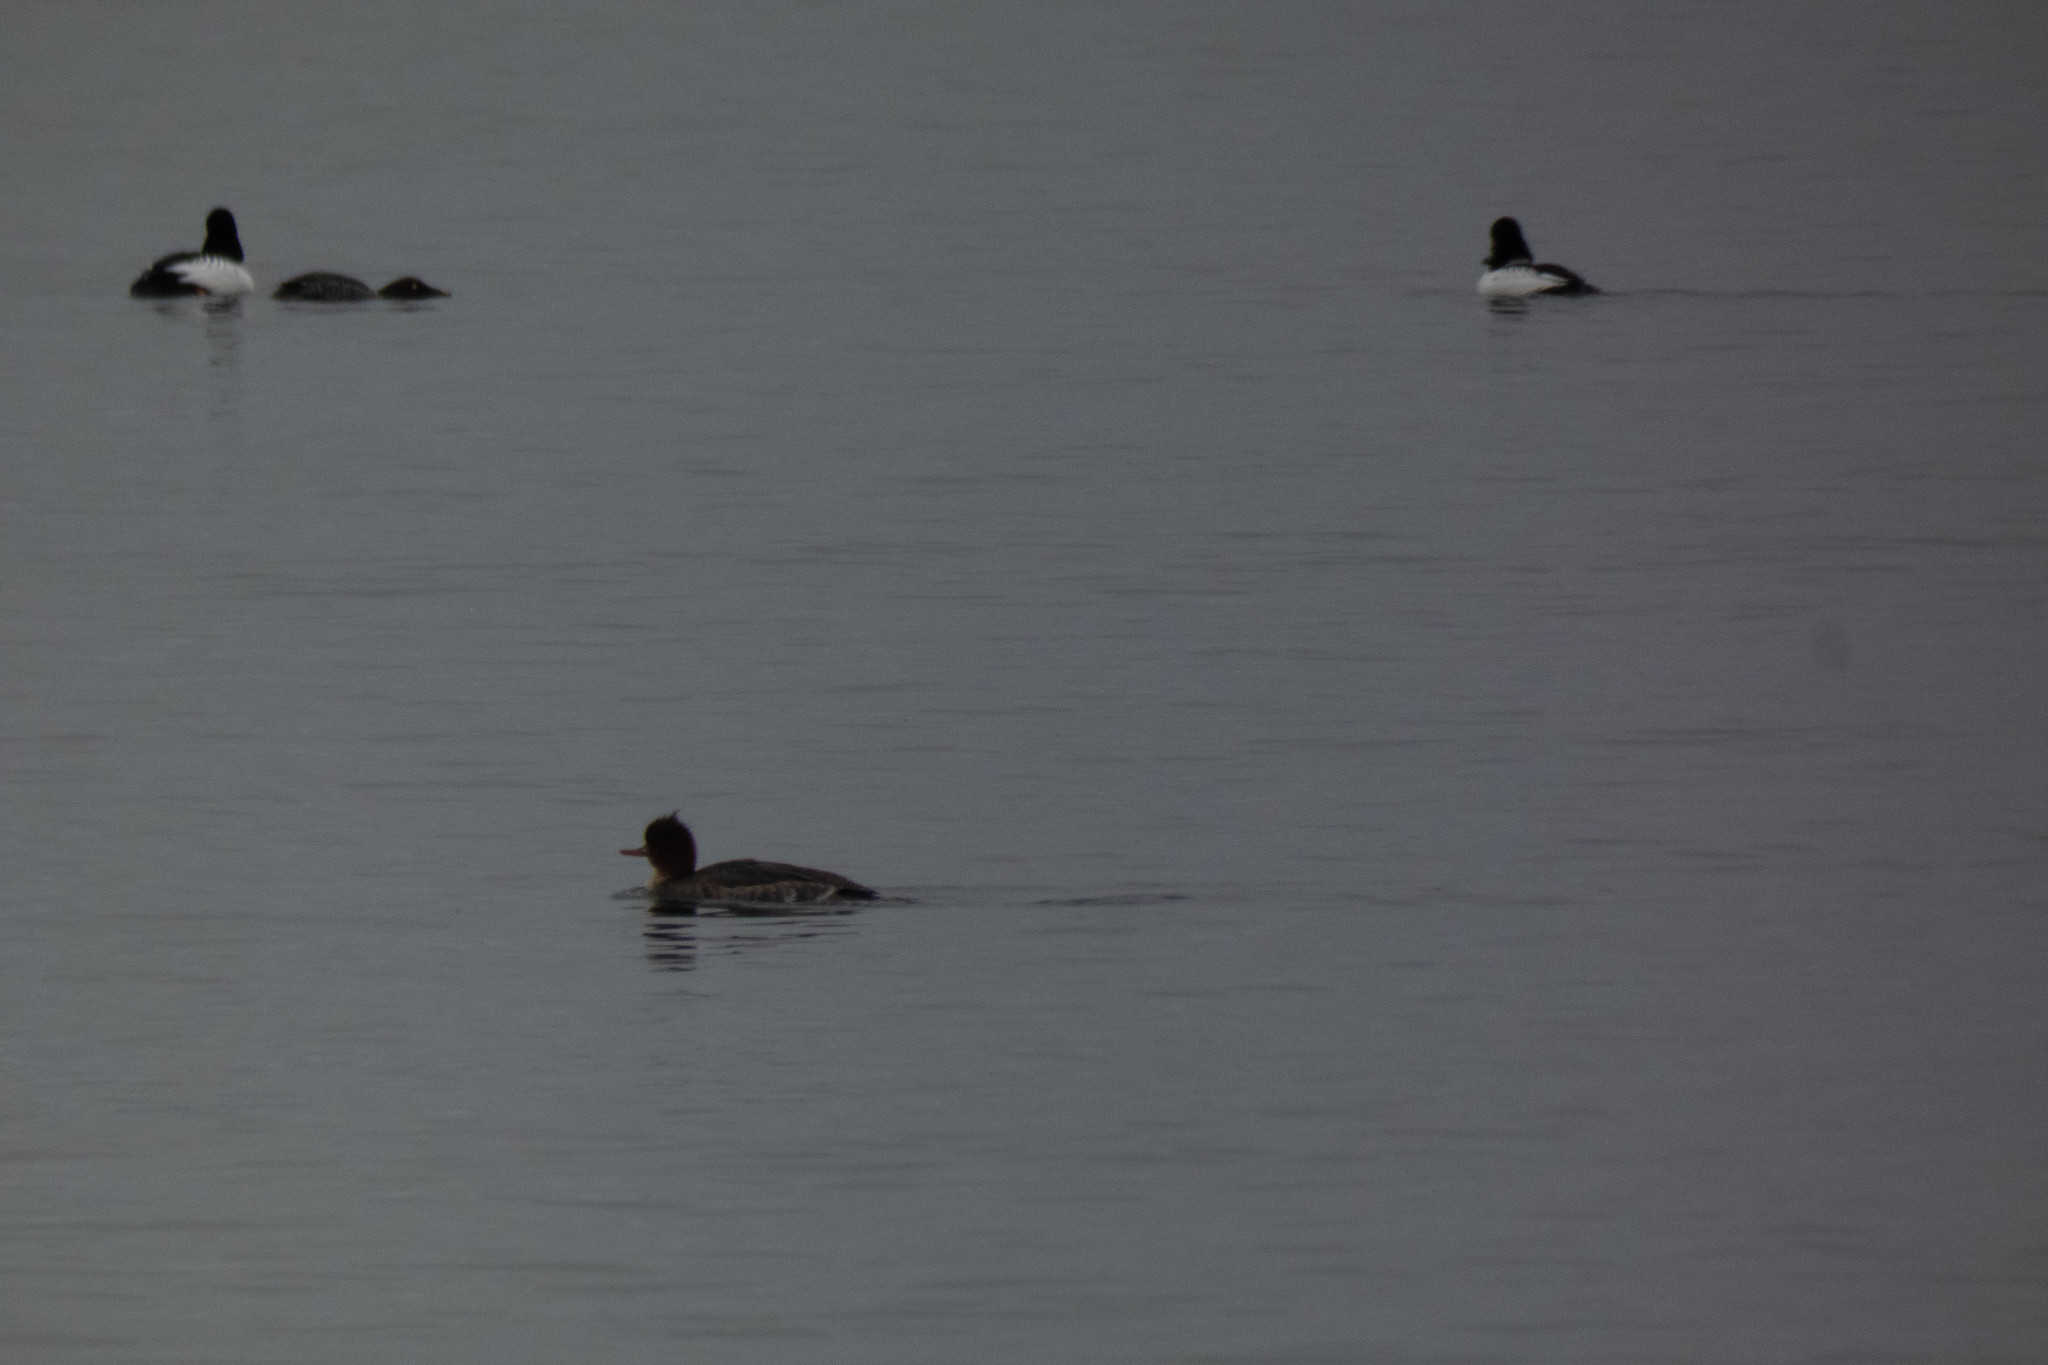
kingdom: Animalia
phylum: Chordata
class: Aves
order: Anseriformes
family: Anatidae
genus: Mergus
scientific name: Mergus serrator
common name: Red-breasted merganser
